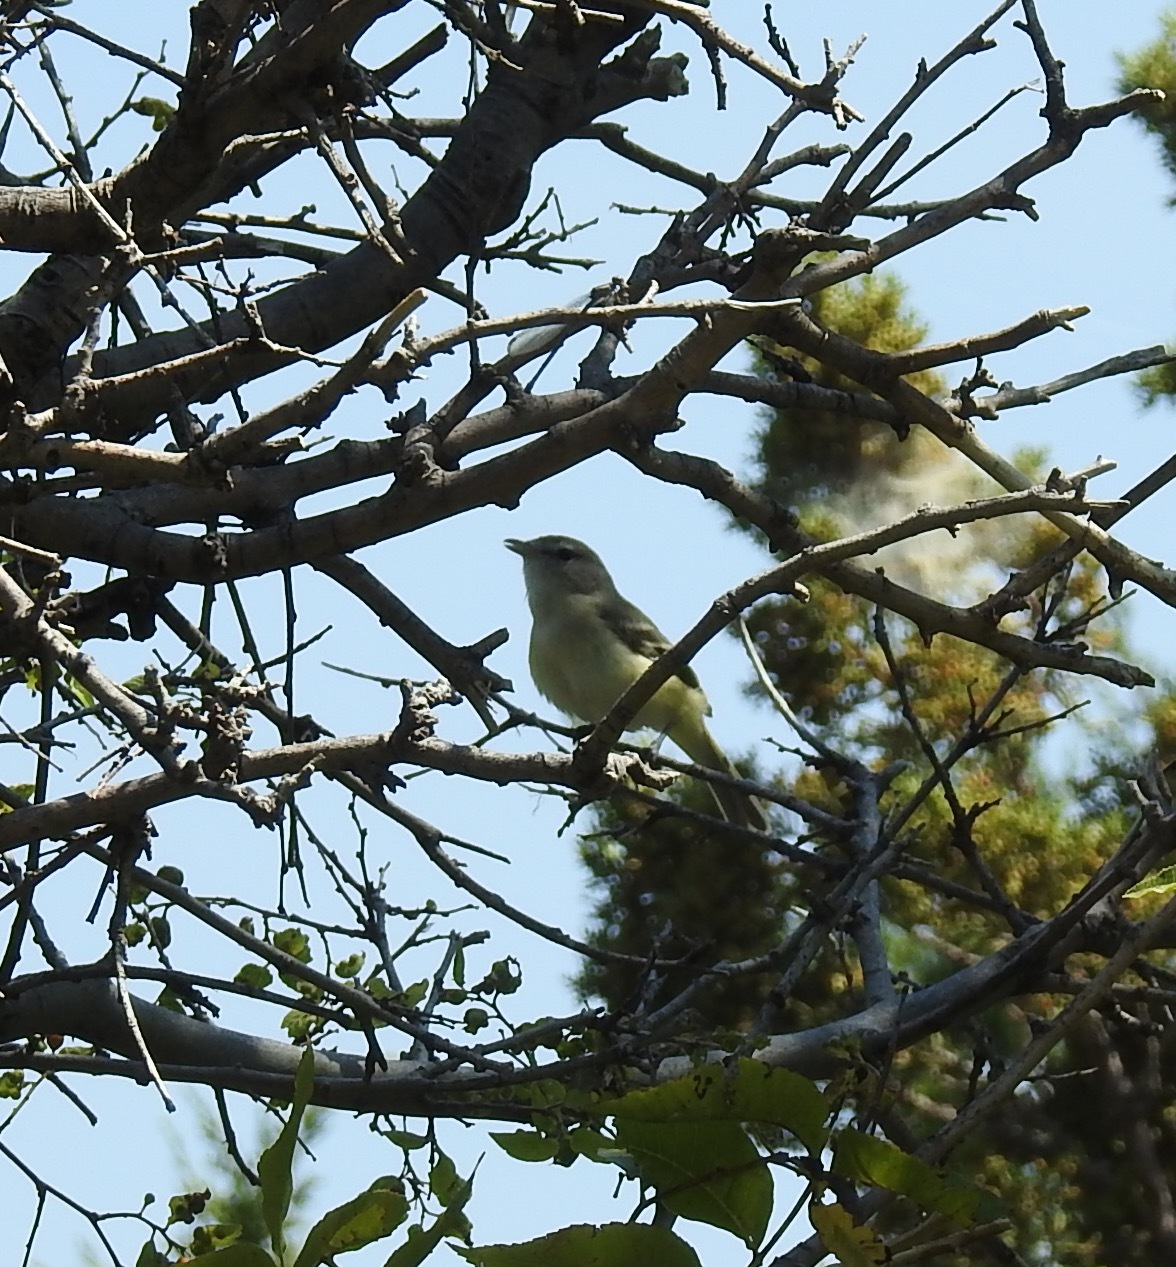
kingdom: Animalia
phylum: Chordata
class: Aves
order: Passeriformes
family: Vireonidae
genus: Vireo
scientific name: Vireo bellii
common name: Bell's vireo
